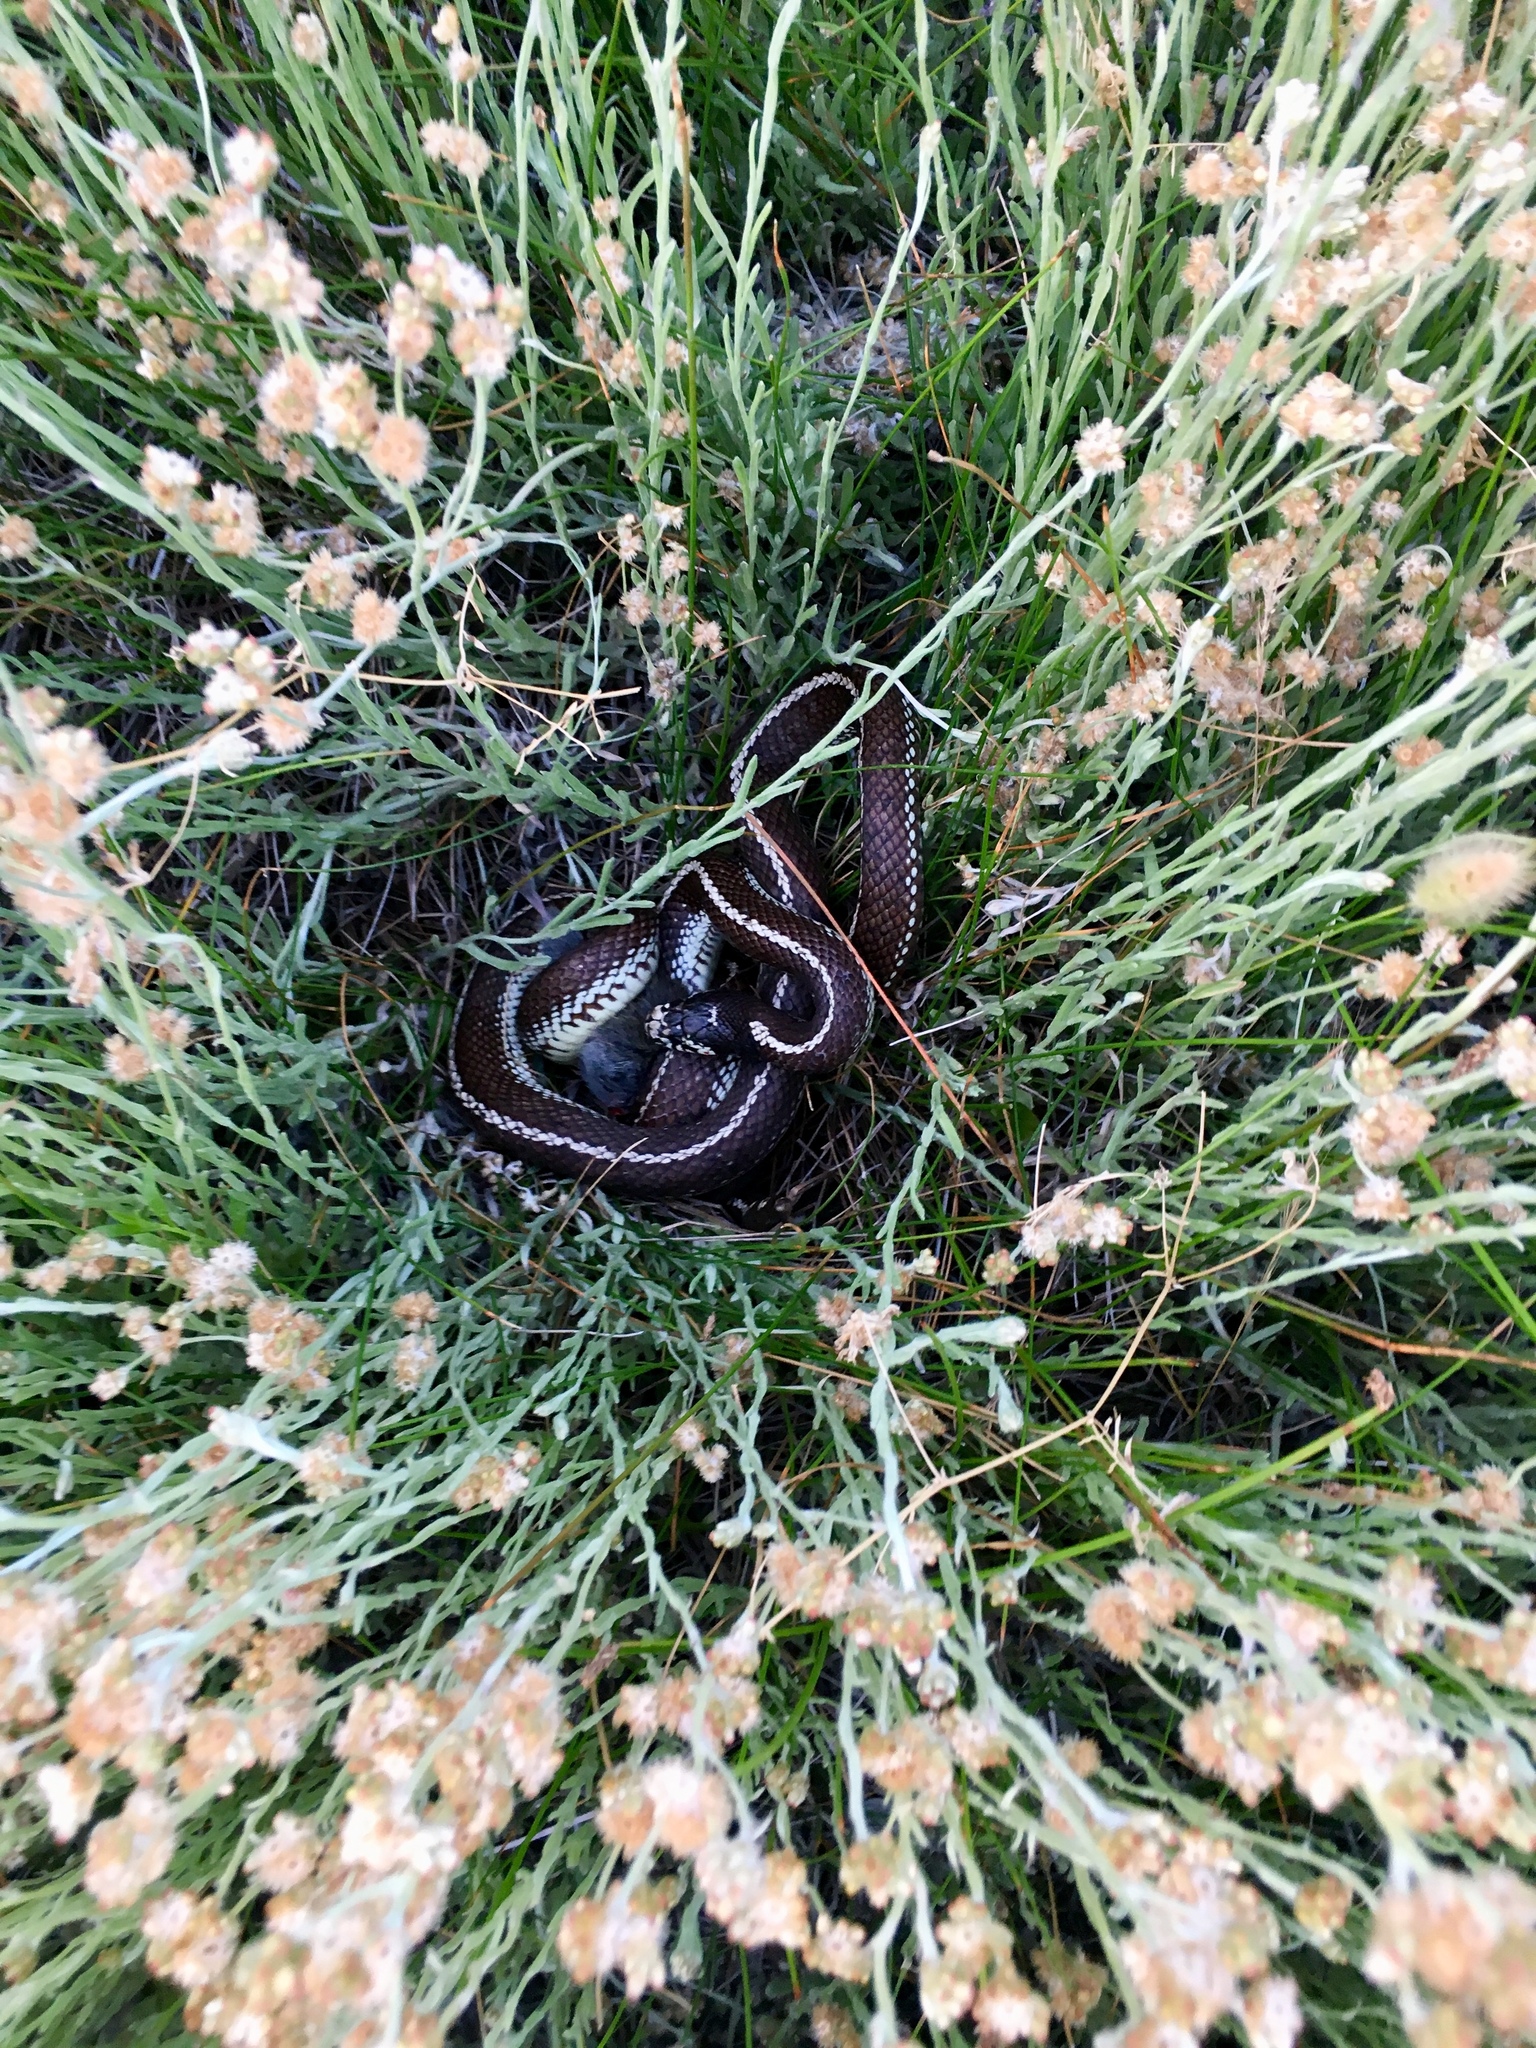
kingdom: Animalia
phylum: Chordata
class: Squamata
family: Colubridae
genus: Lampropeltis
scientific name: Lampropeltis californiae
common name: California kingsnake
